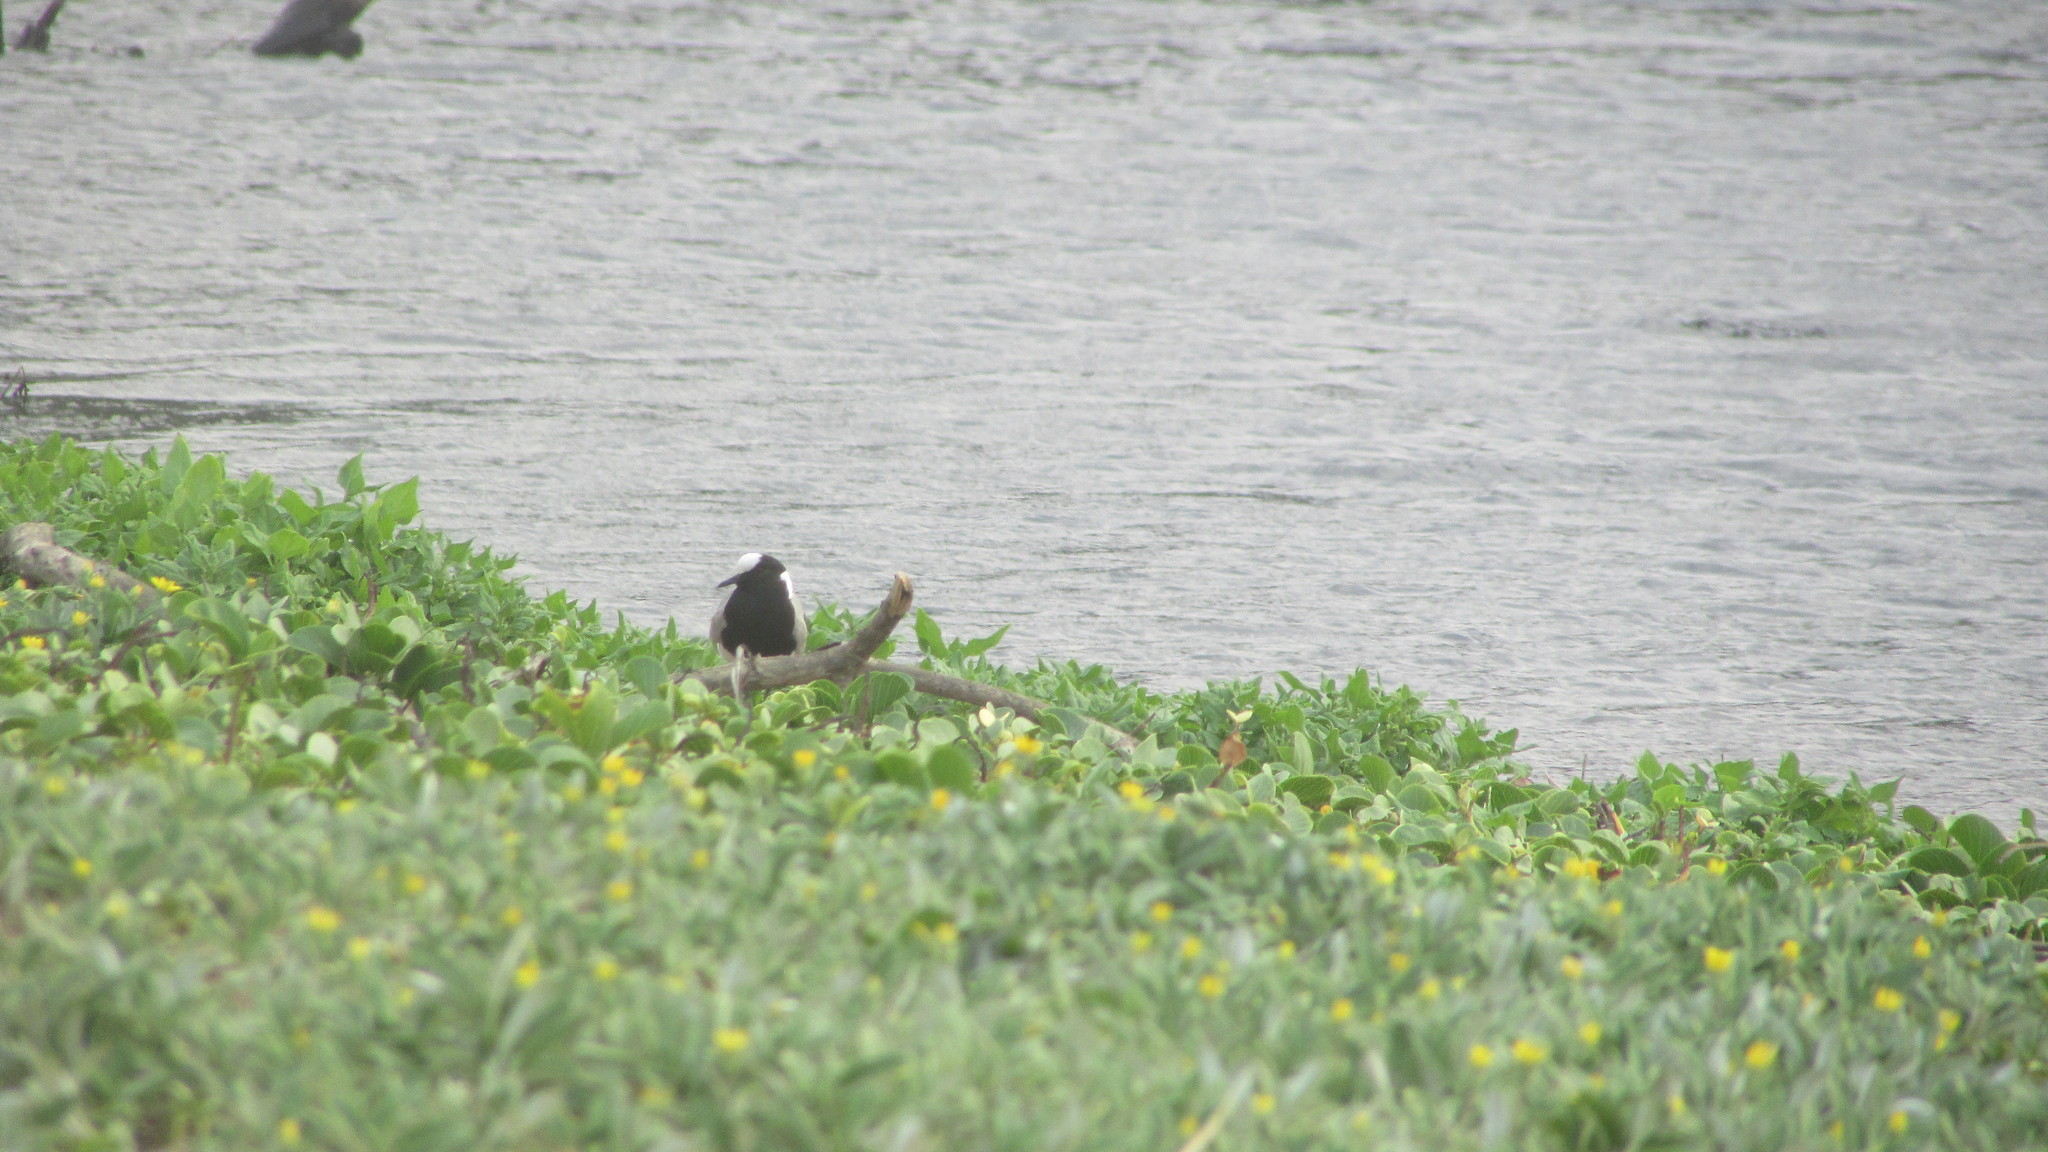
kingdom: Animalia
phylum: Chordata
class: Aves
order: Charadriiformes
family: Charadriidae
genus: Vanellus
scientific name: Vanellus armatus
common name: Blacksmith lapwing
